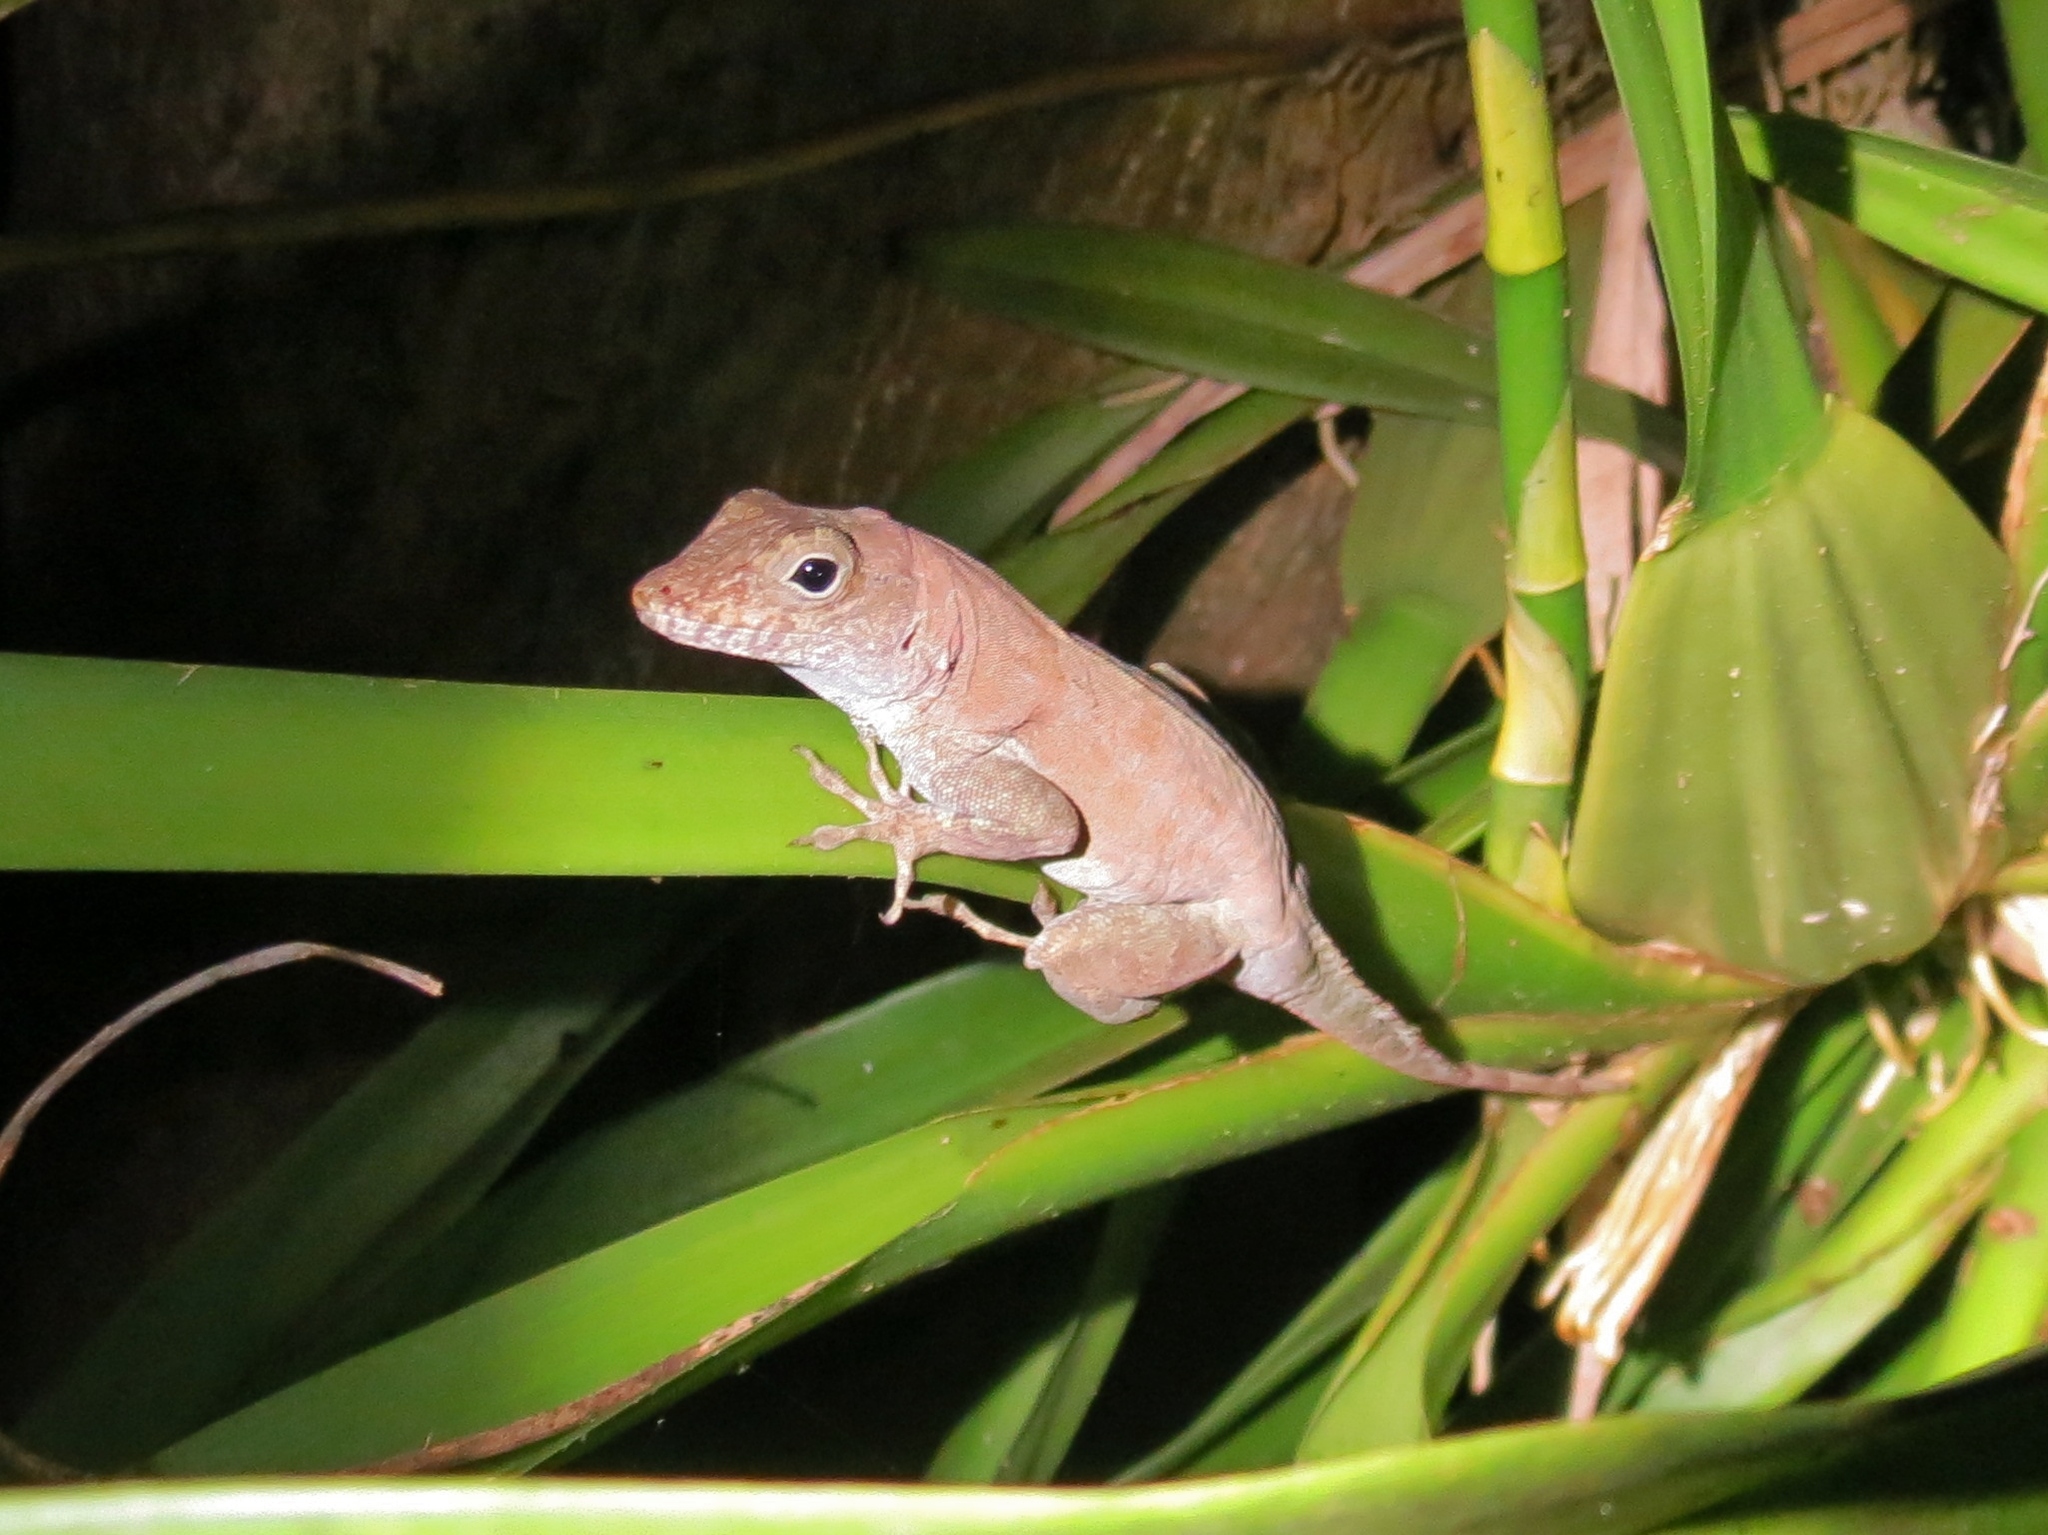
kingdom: Animalia
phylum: Chordata
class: Squamata
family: Dactyloidae
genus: Anolis
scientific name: Anolis cristatellus
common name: Crested anole
